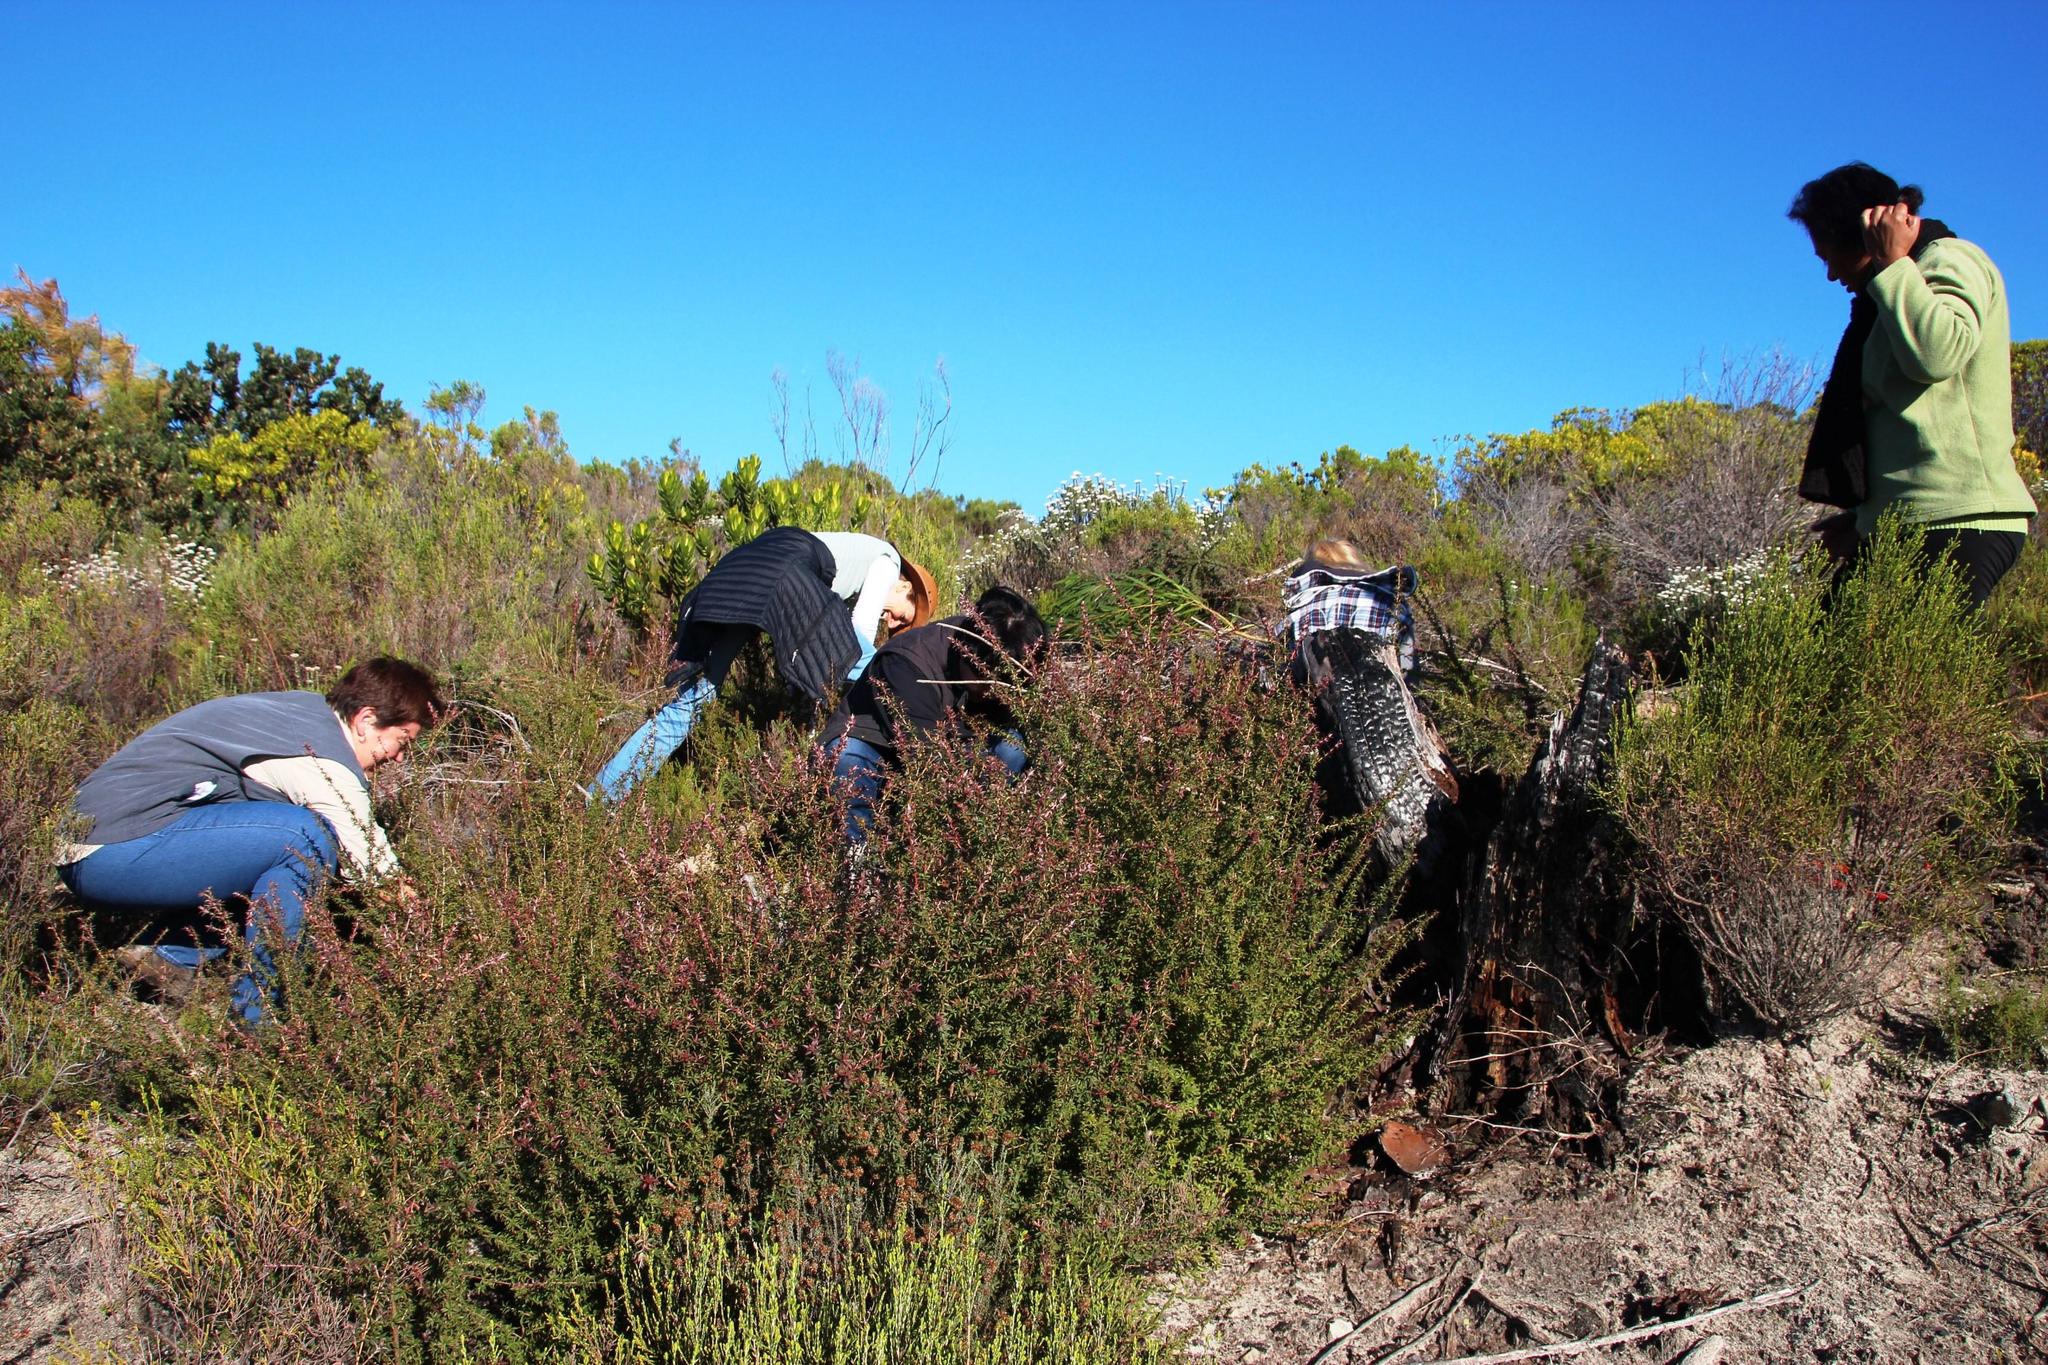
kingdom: Plantae
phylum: Tracheophyta
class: Magnoliopsida
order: Myrtales
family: Myrtaceae
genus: Leptospermum
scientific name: Leptospermum squarrosum
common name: Peach-blossom teatree
